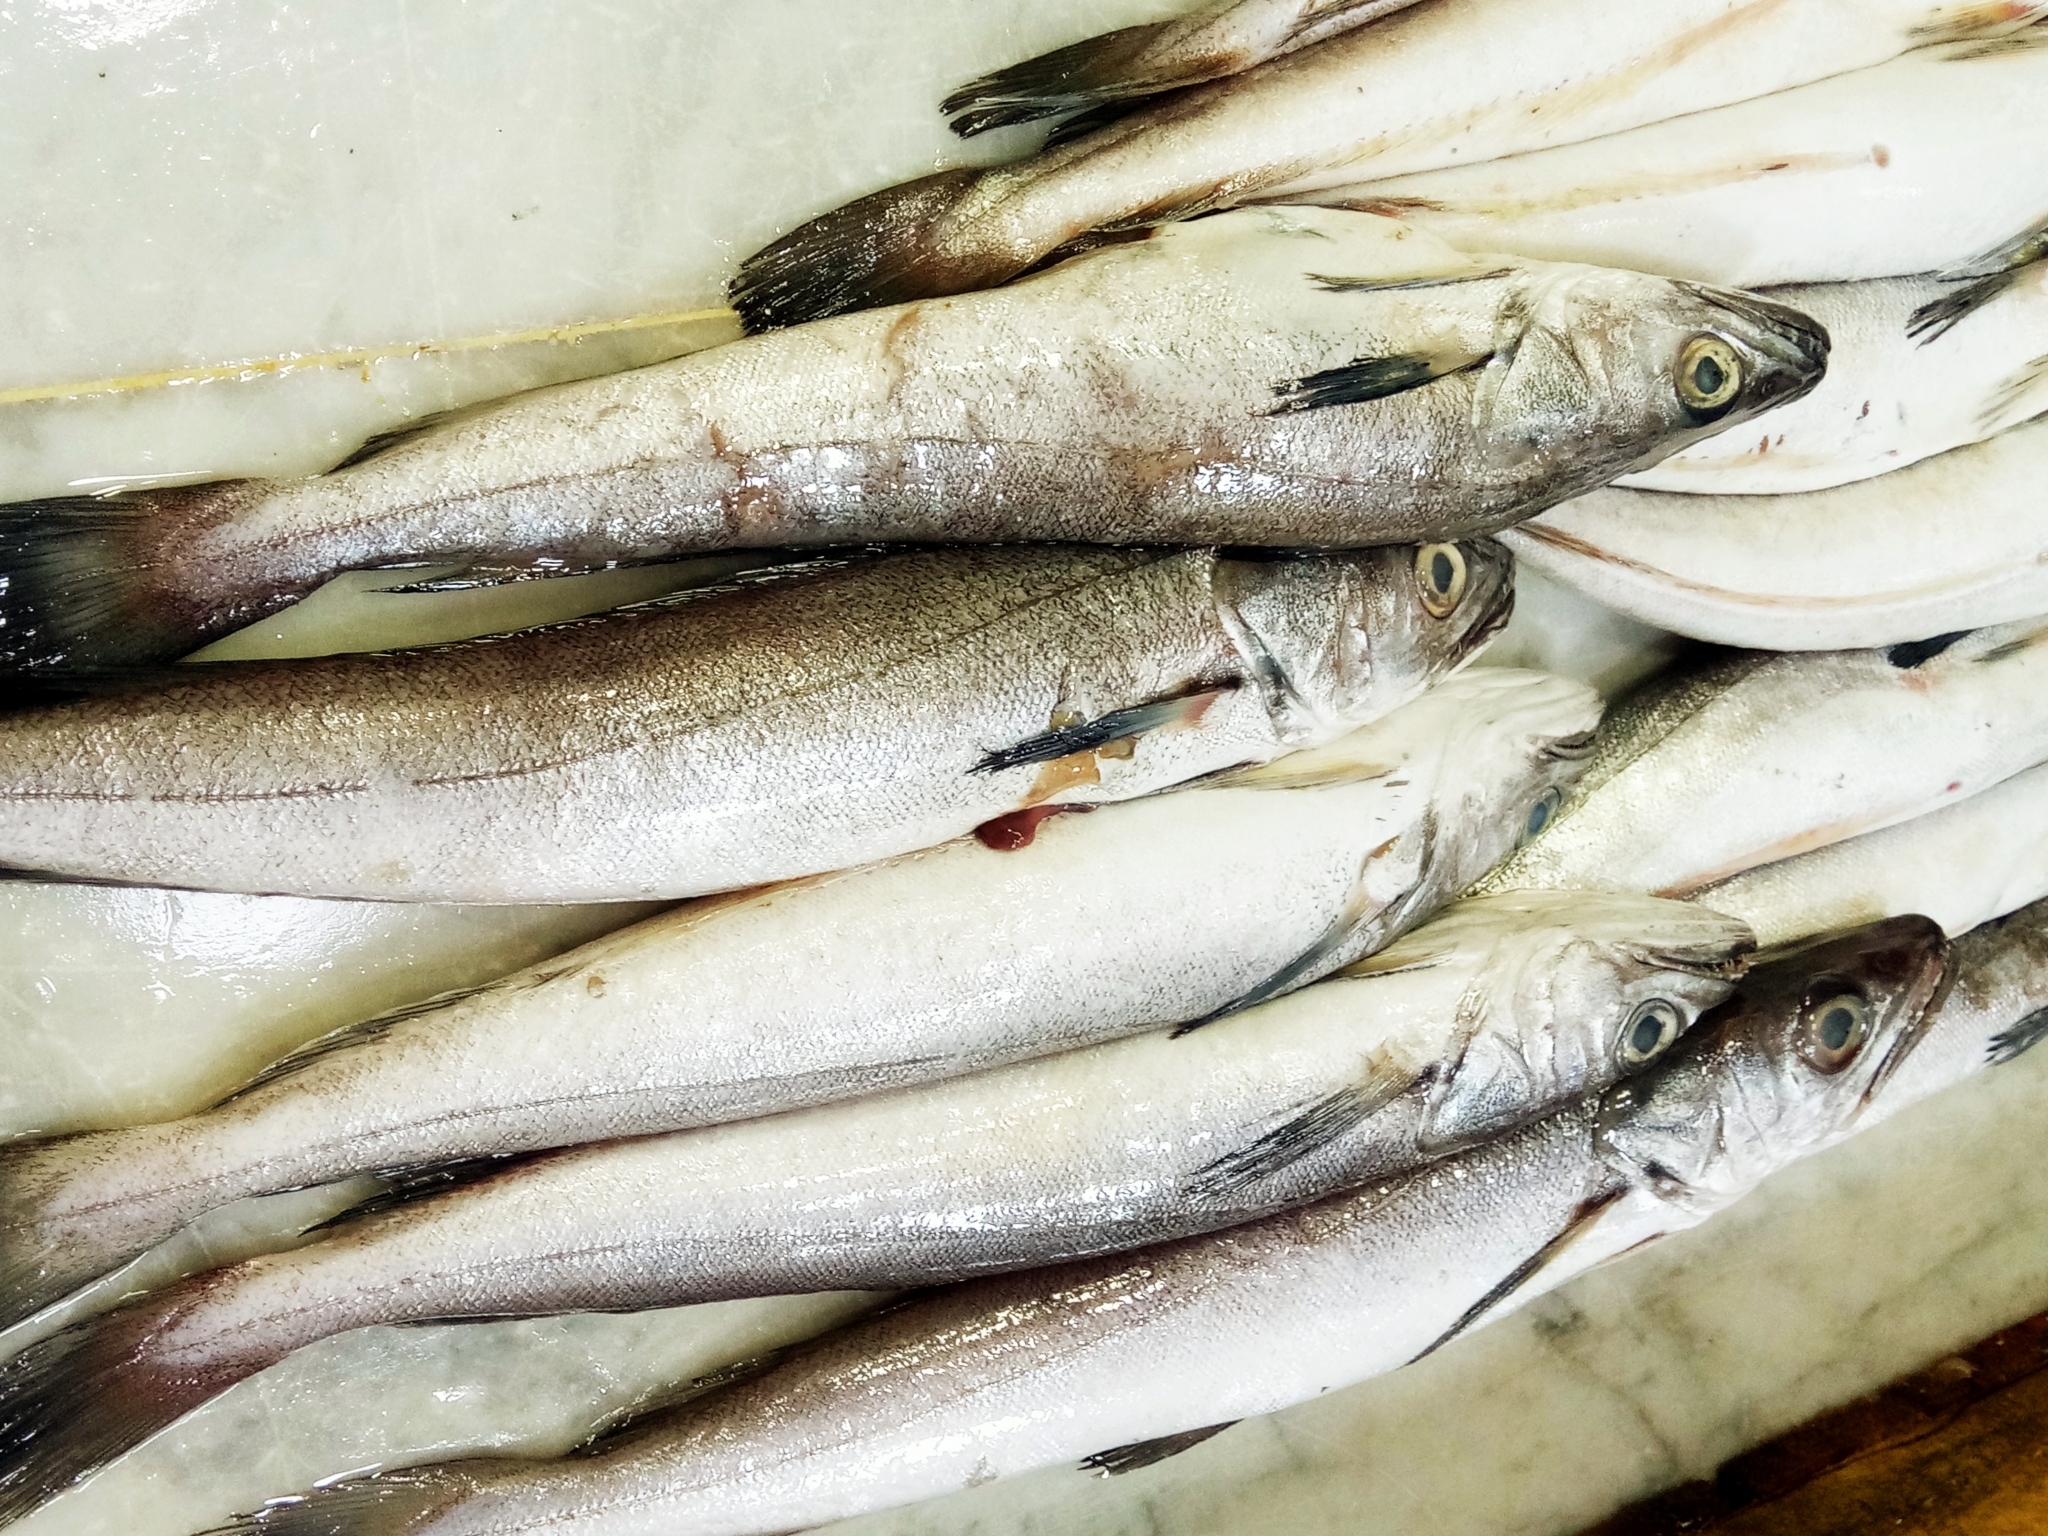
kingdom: Animalia
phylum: Chordata
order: Gadiformes
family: Merlucciidae
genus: Merluccius
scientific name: Merluccius merluccius
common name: European hake
